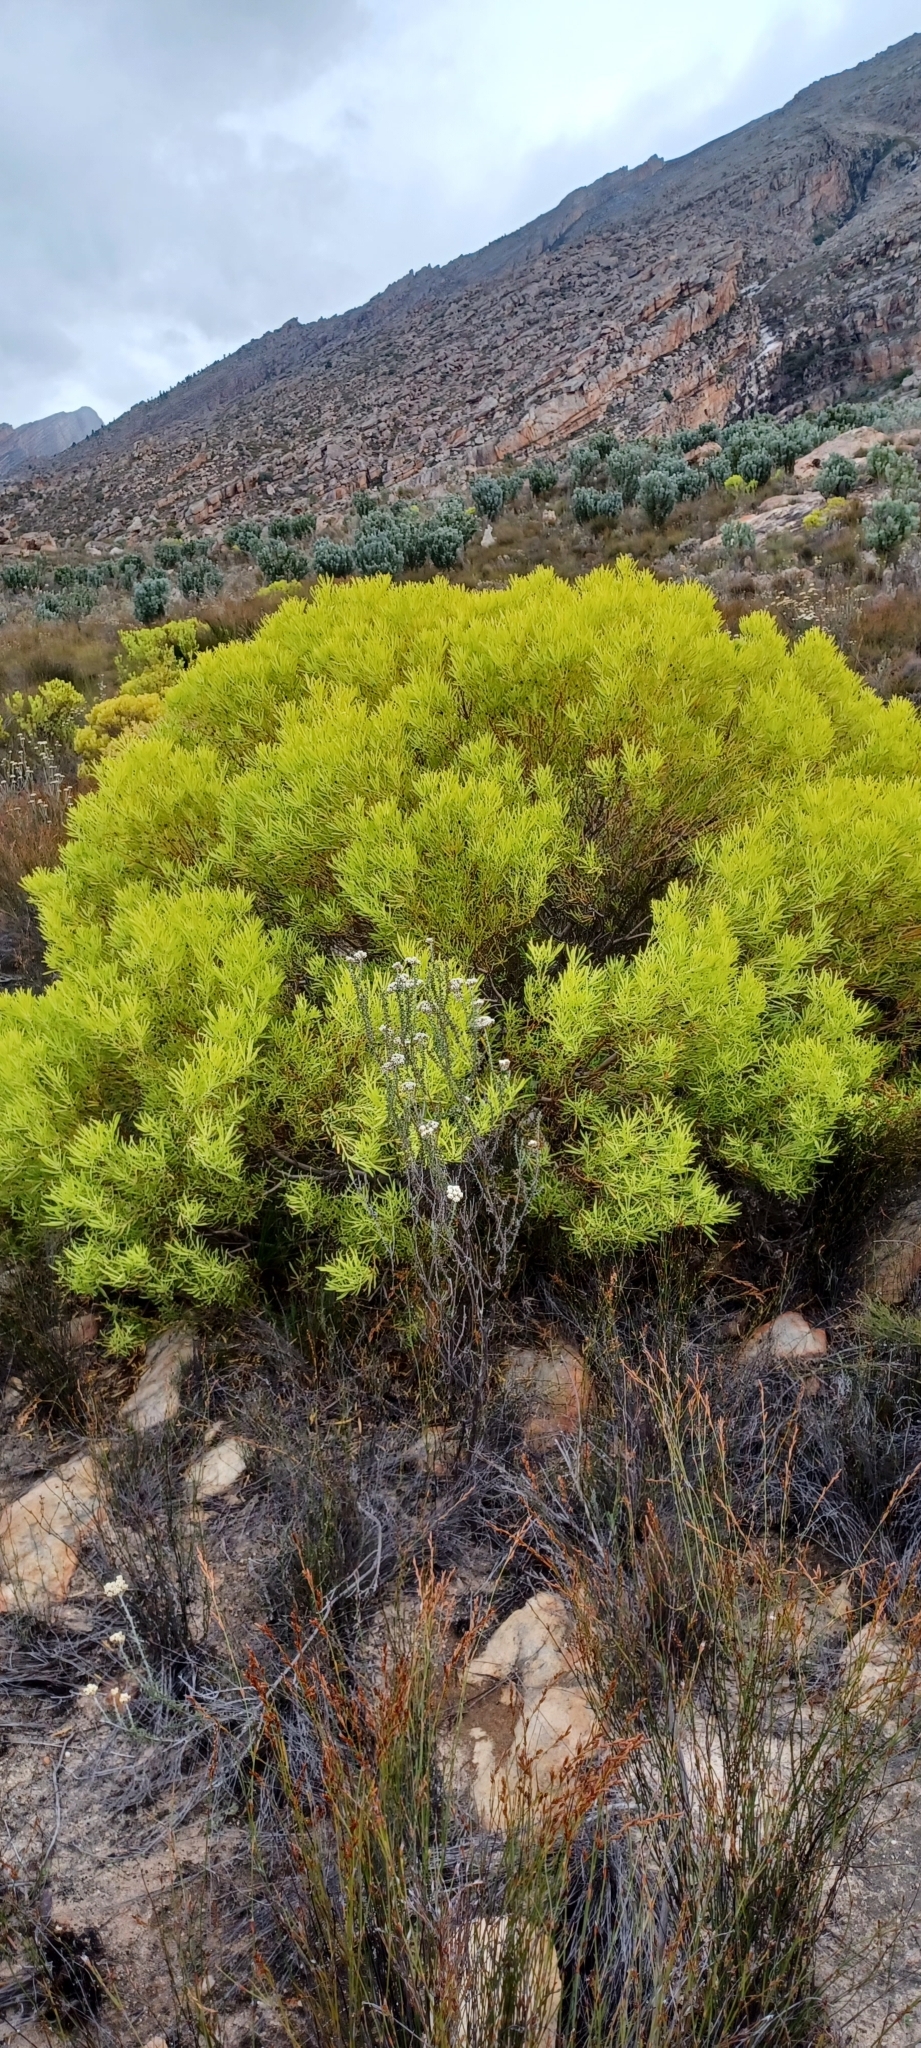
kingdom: Plantae
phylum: Tracheophyta
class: Magnoliopsida
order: Proteales
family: Proteaceae
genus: Leucadendron
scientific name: Leucadendron salignum
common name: Common sunshine conebush
